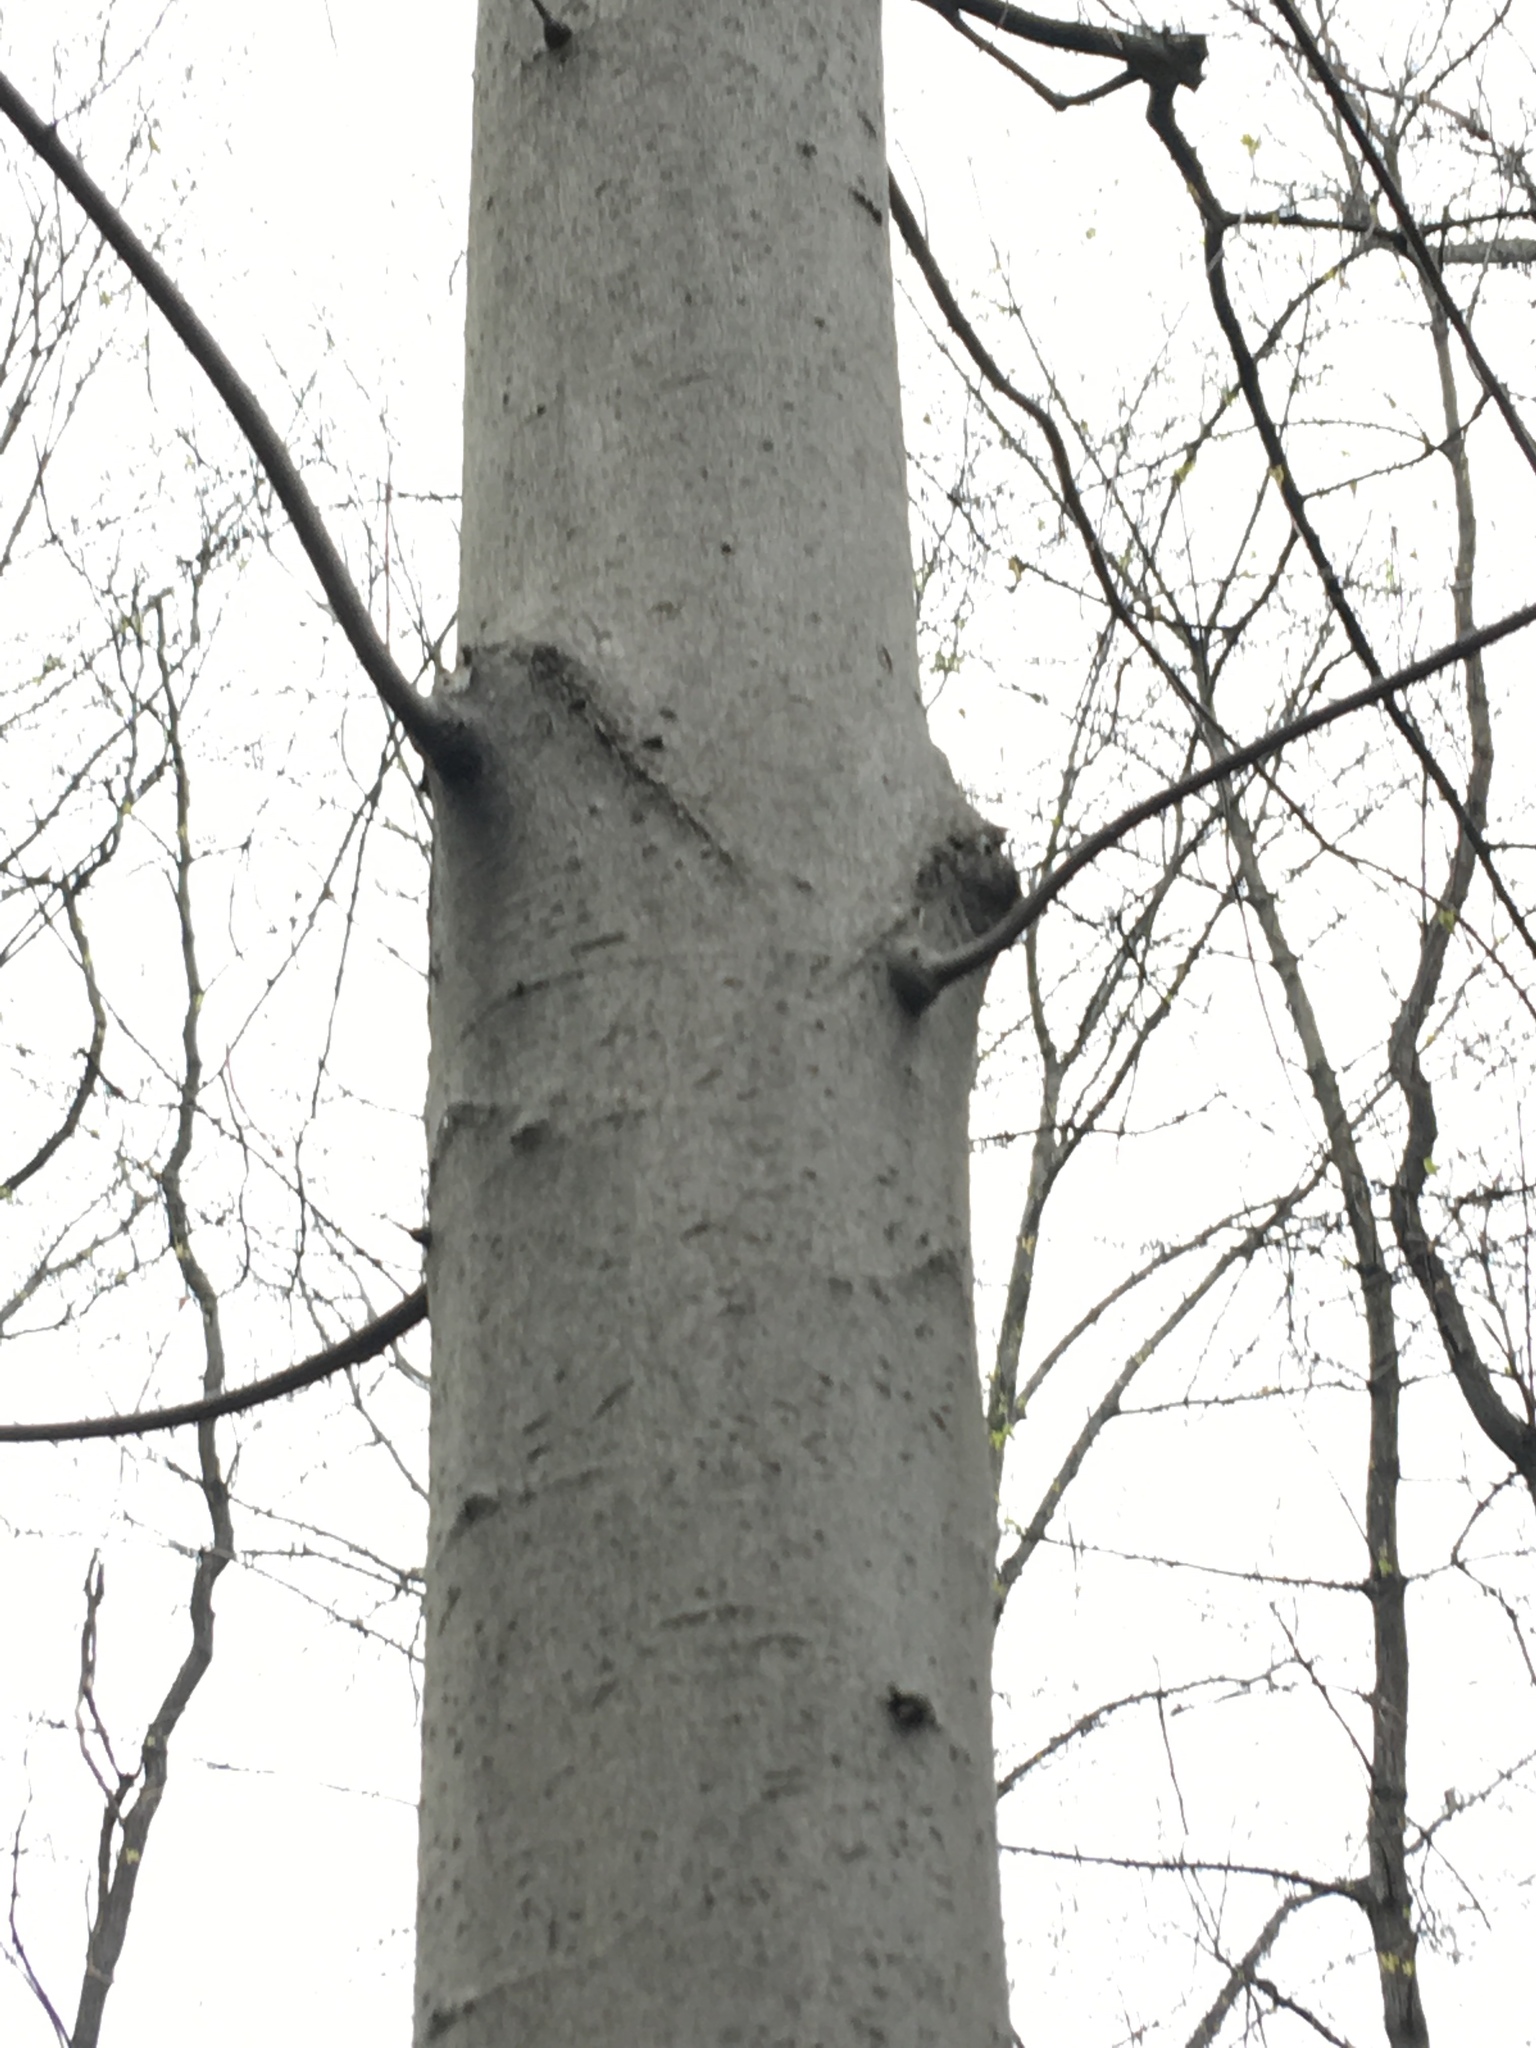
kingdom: Plantae
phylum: Tracheophyta
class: Magnoliopsida
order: Fagales
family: Fagaceae
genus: Fagus
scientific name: Fagus grandifolia
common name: American beech
